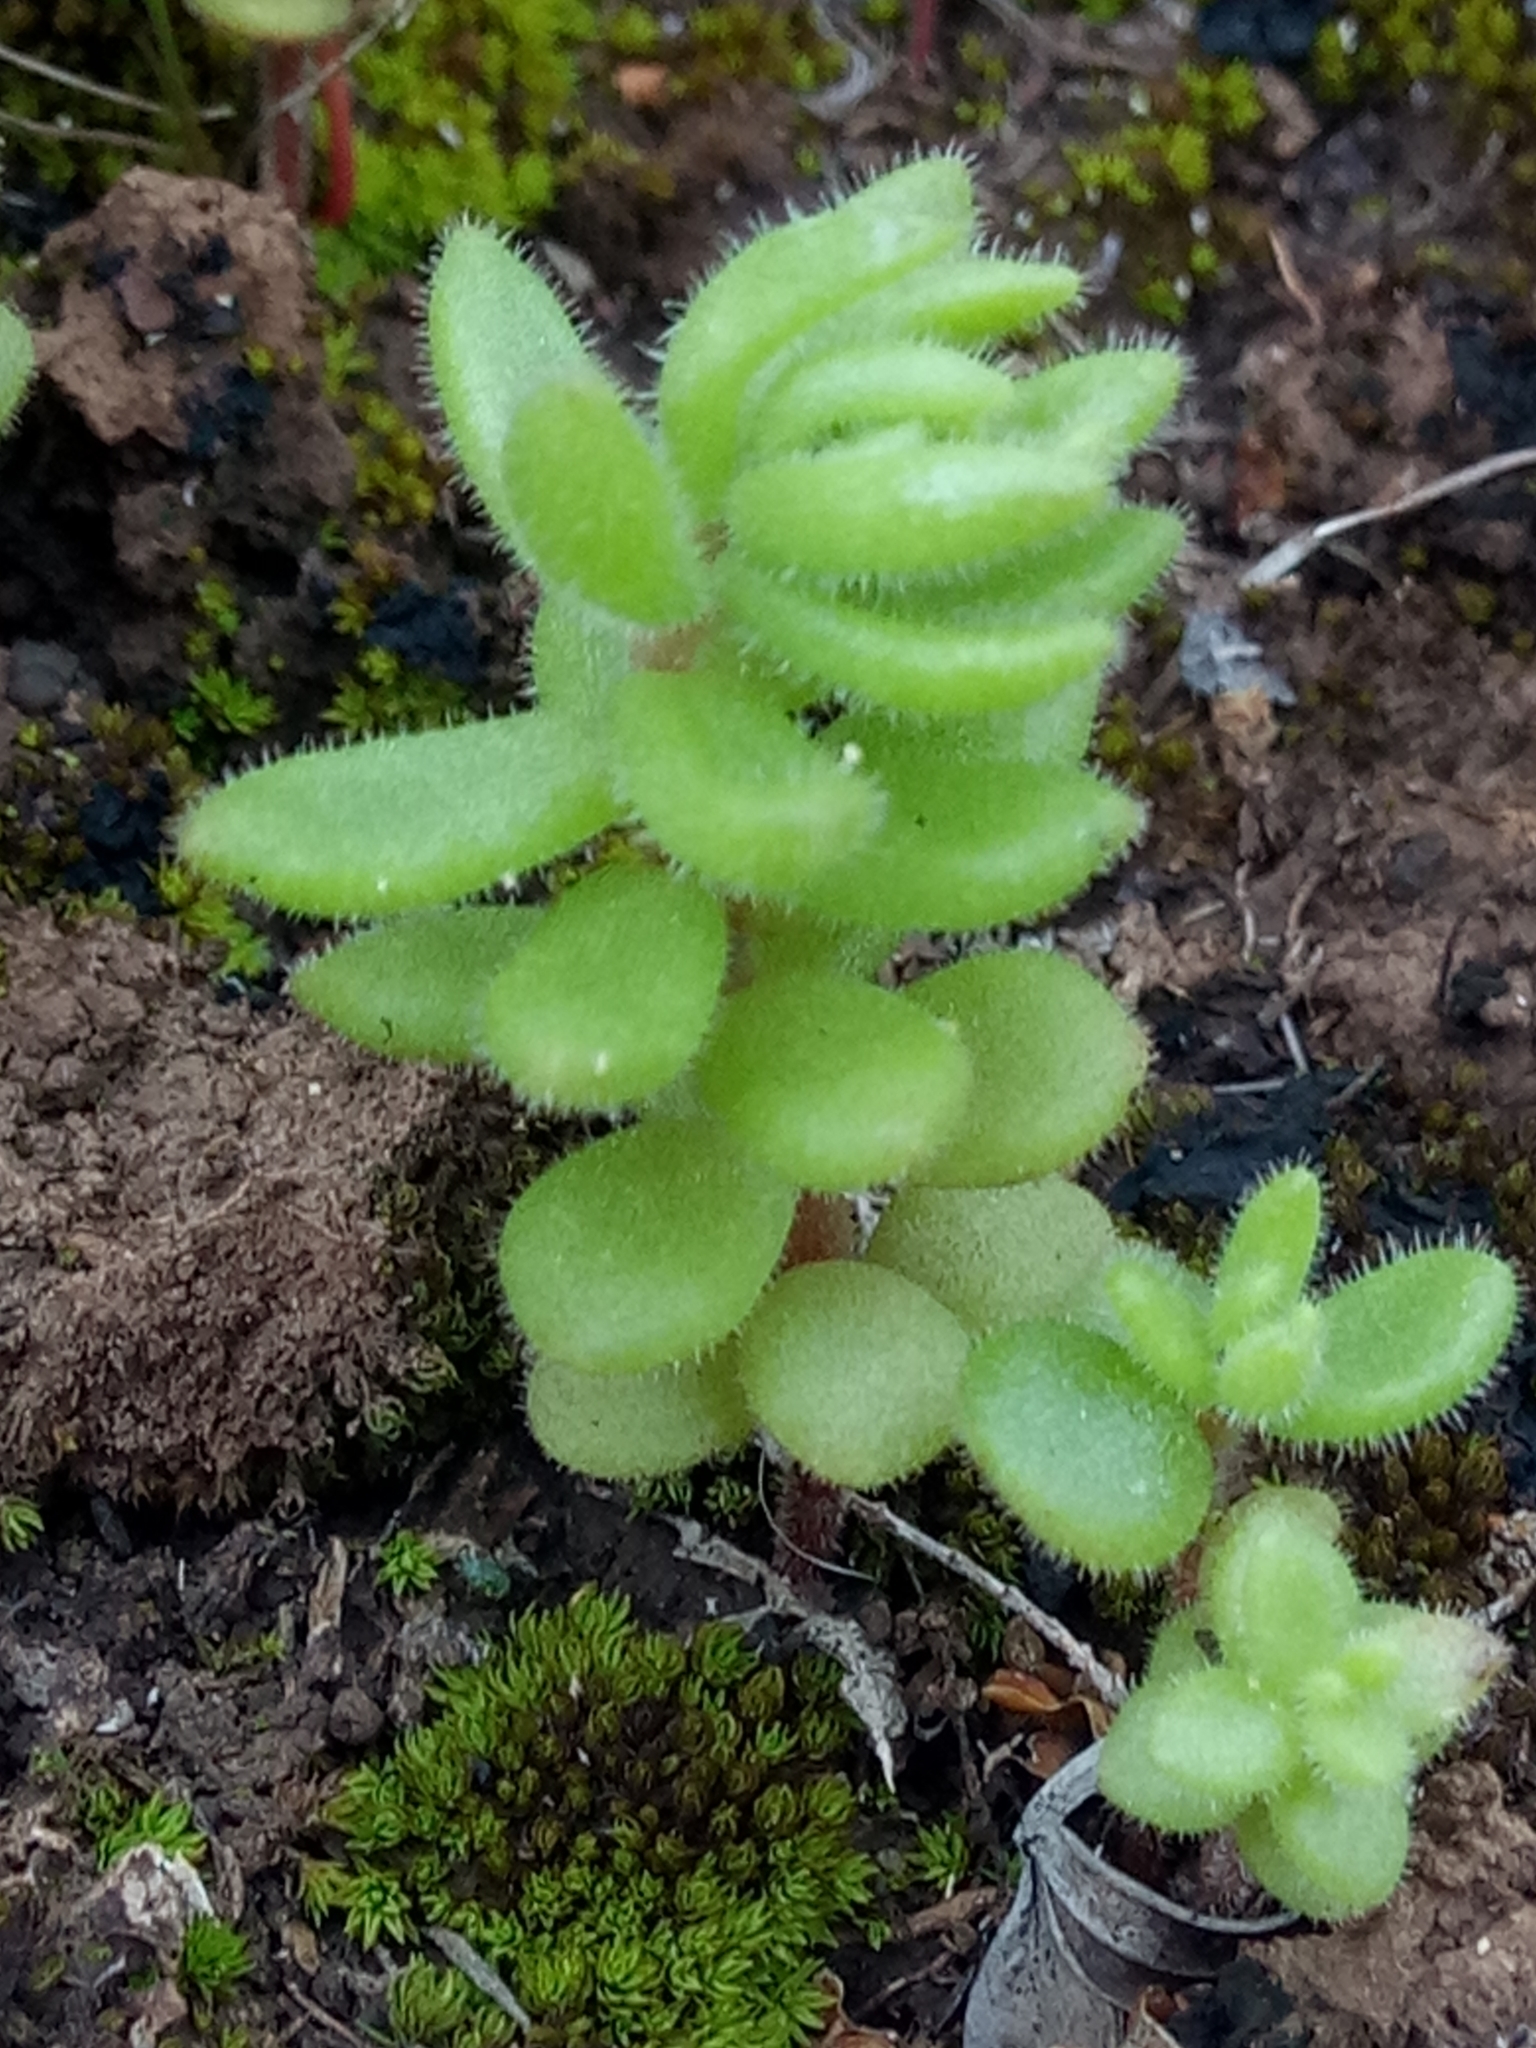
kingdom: Plantae
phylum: Tracheophyta
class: Magnoliopsida
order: Saxifragales
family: Crassulaceae
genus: Sedum
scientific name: Sedum pubescens
